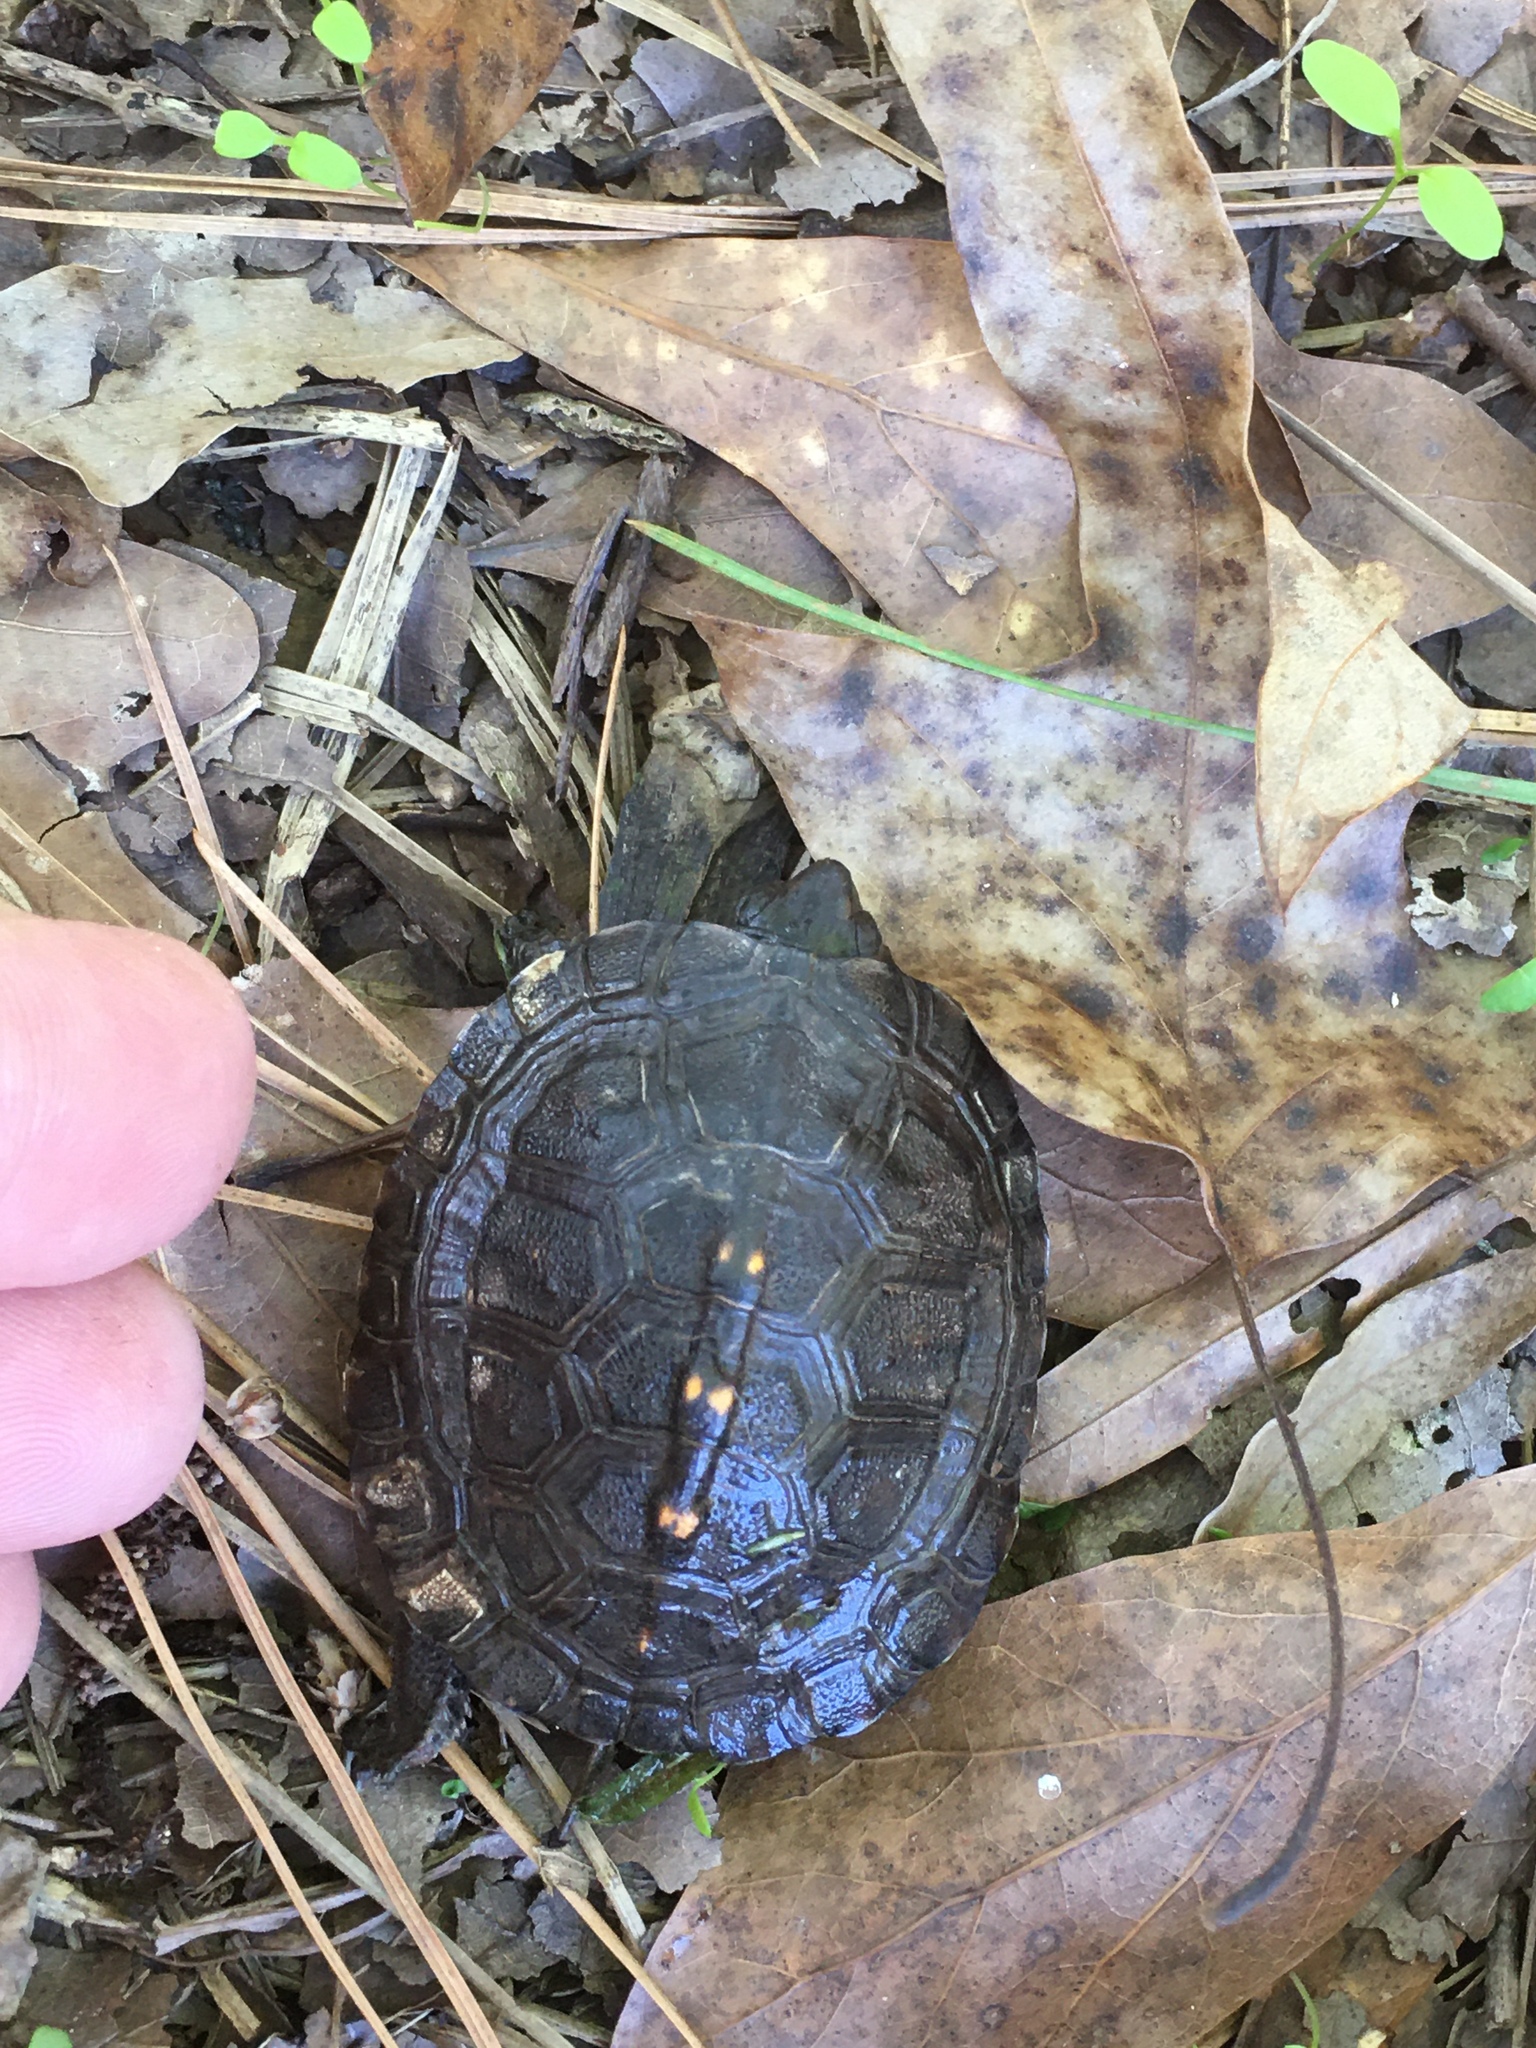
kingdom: Animalia
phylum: Chordata
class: Testudines
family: Emydidae
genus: Terrapene
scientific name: Terrapene carolina
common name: Common box turtle
